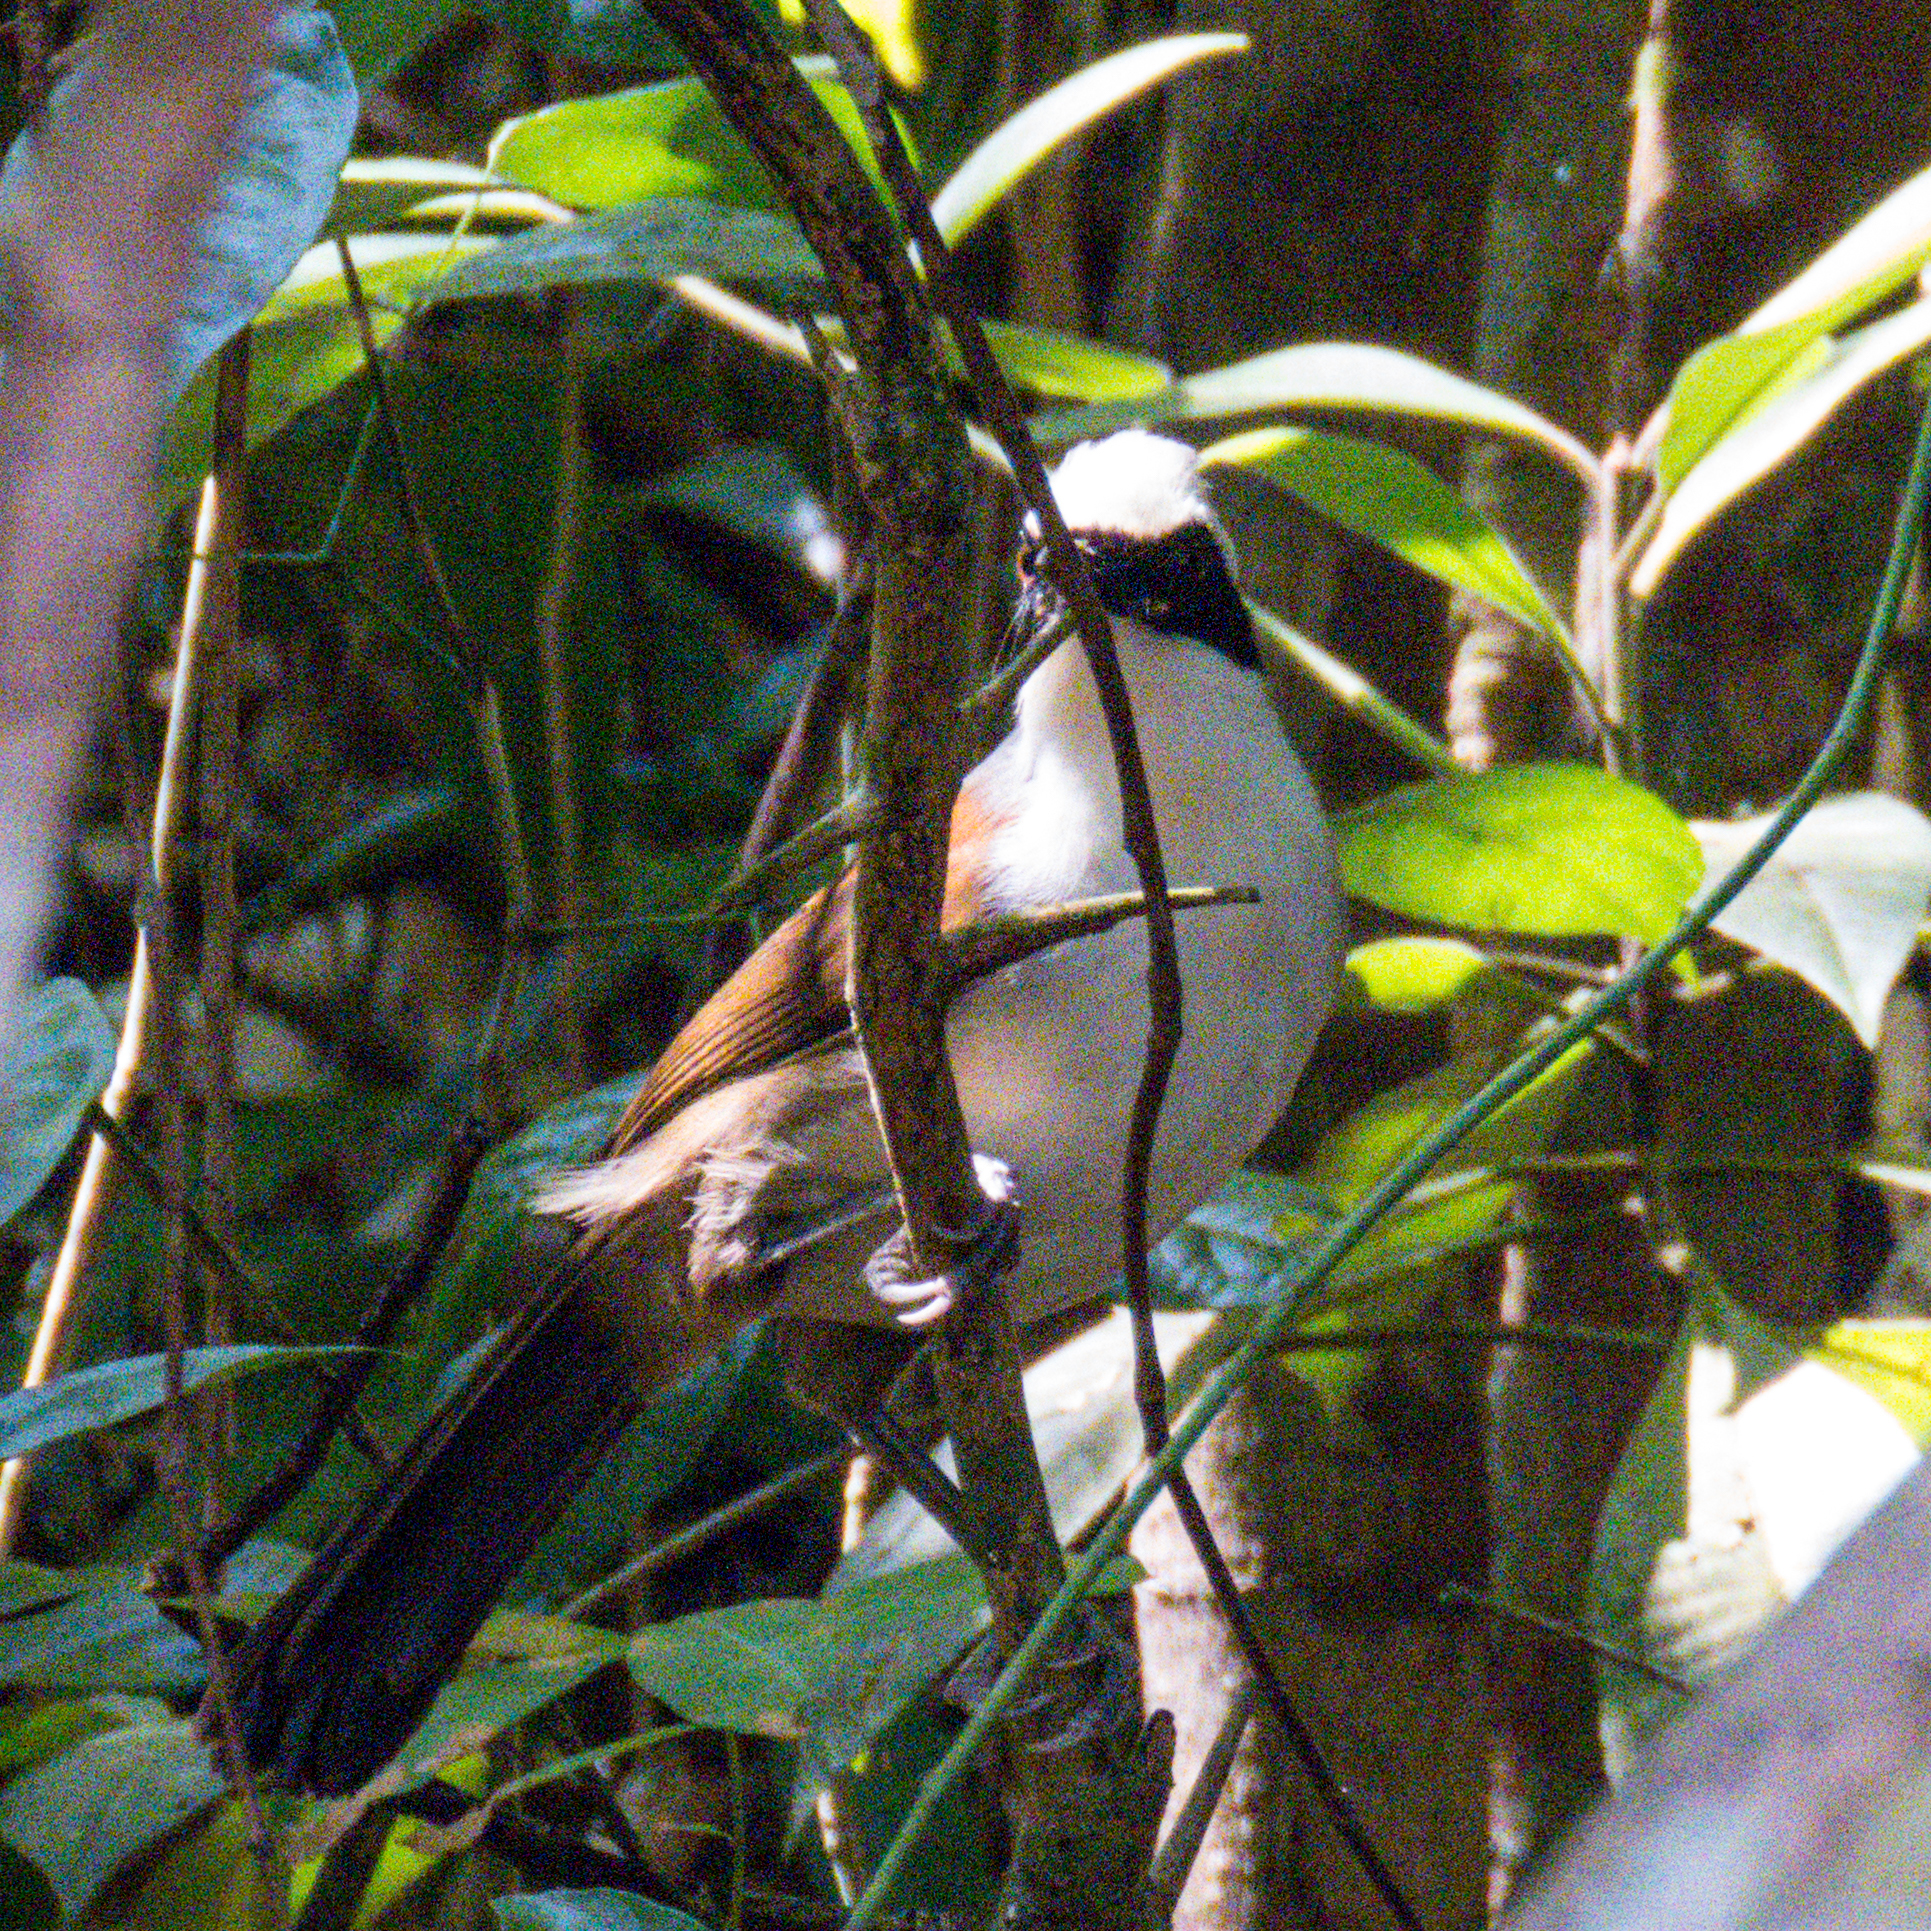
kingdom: Animalia
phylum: Chordata
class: Aves
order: Passeriformes
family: Leiothrichidae
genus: Garrulax
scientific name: Garrulax leucolophus
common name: White-crested laughingthrush
